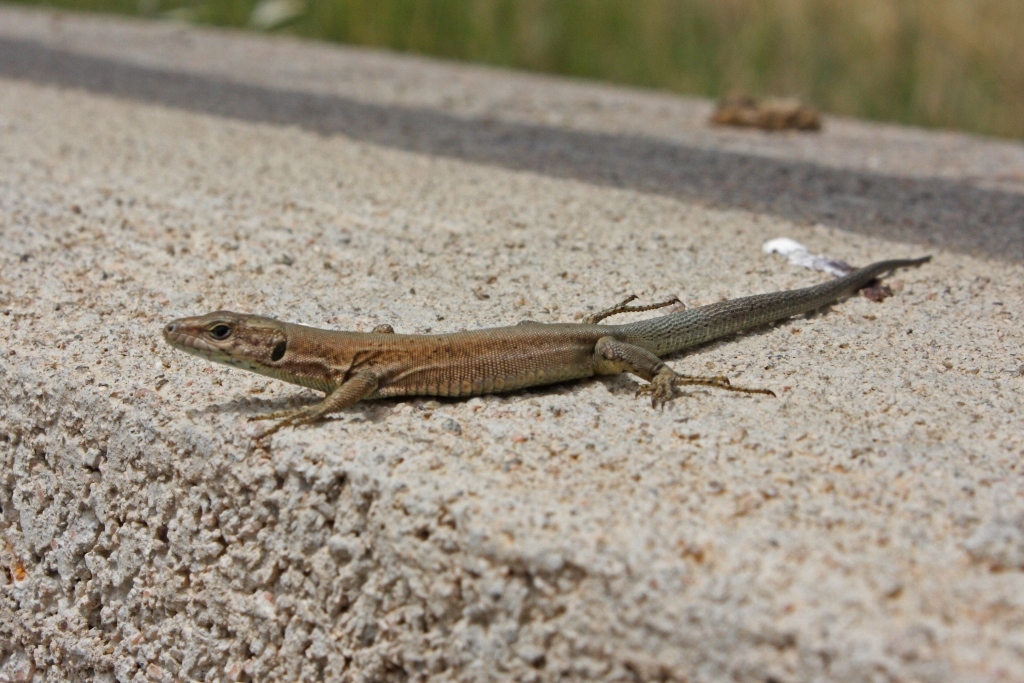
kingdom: Animalia
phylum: Chordata
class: Squamata
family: Lacertidae
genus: Podarcis
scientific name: Podarcis liolepis
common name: Catalonian wall lizard
